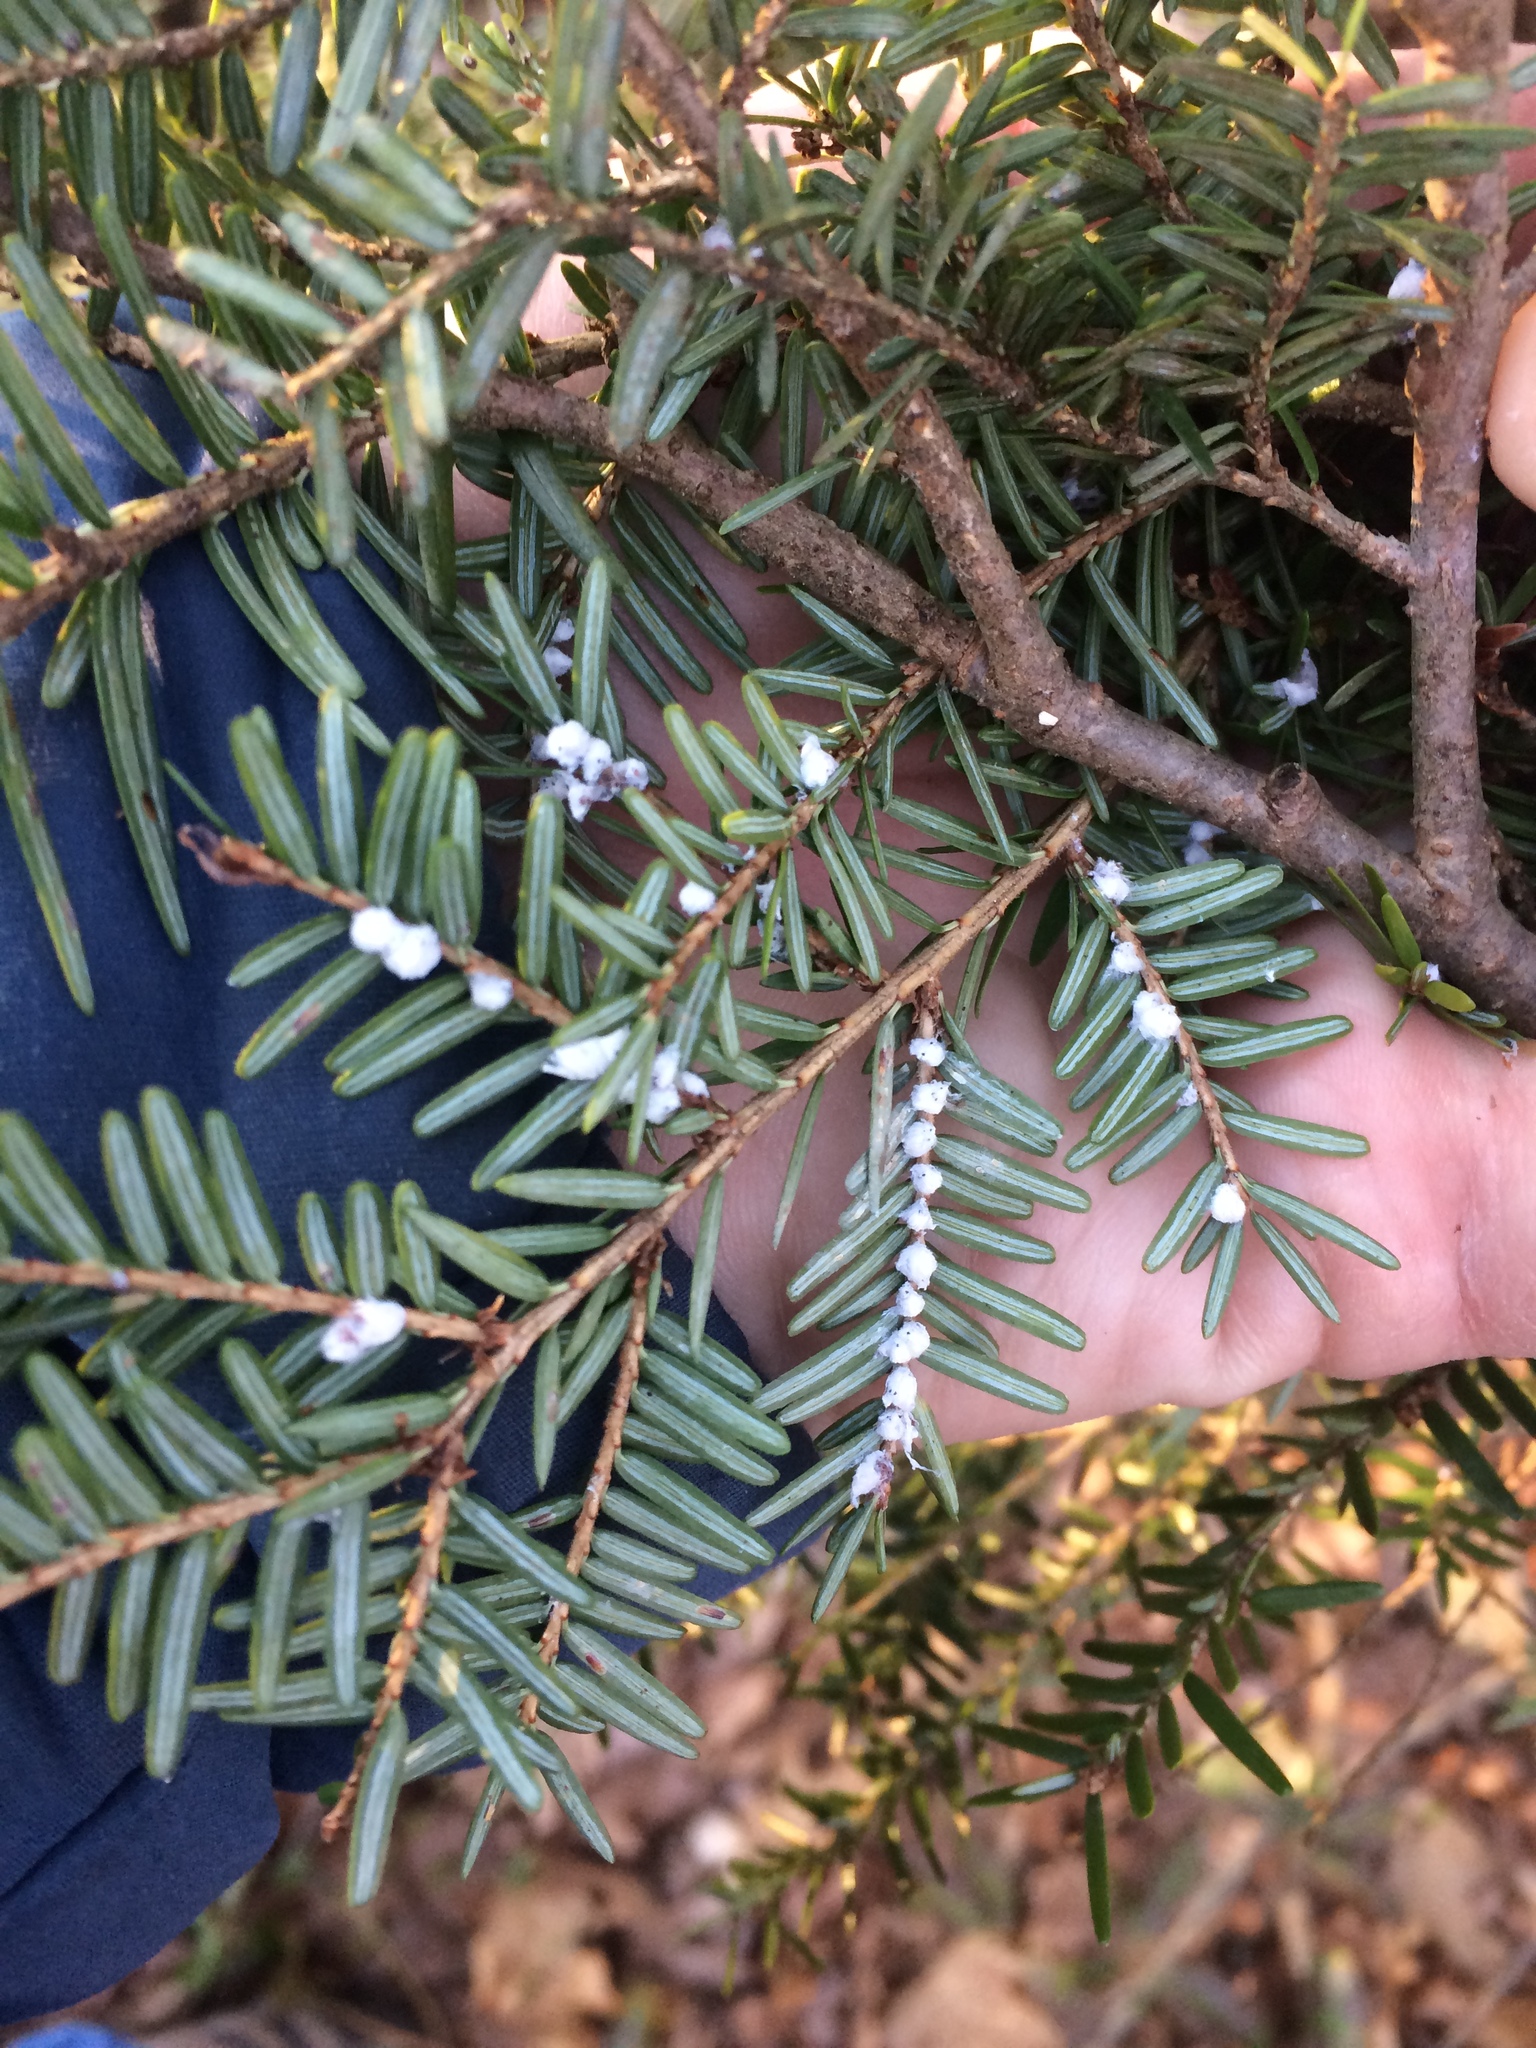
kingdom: Animalia
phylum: Arthropoda
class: Insecta
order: Hemiptera
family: Adelgidae
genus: Adelges
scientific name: Adelges tsugae
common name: Hemlock woolly adelgid
